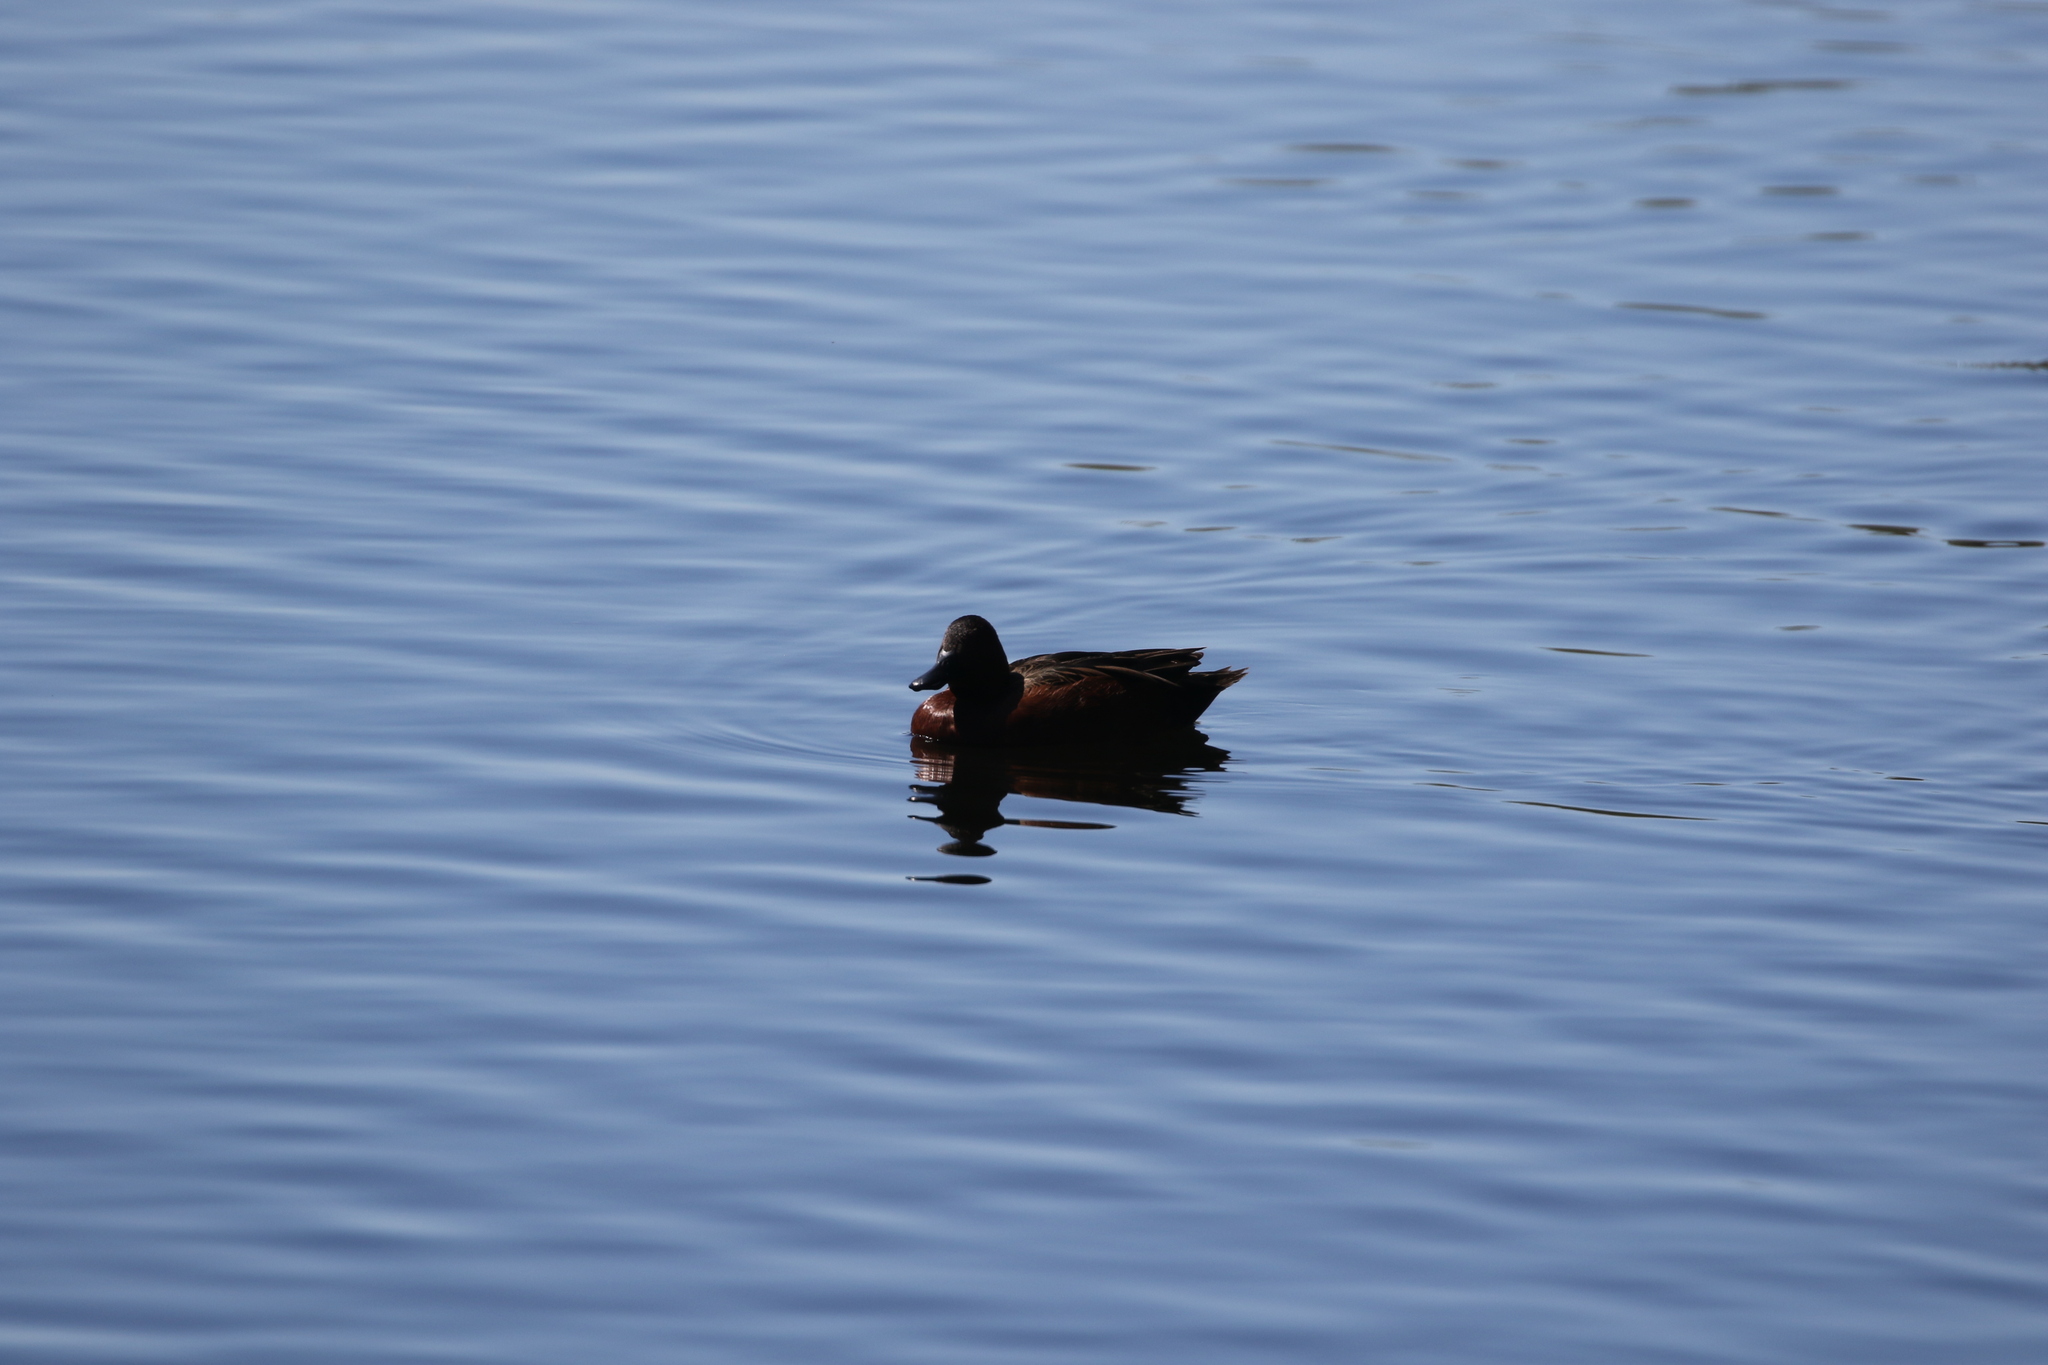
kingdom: Animalia
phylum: Chordata
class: Aves
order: Anseriformes
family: Anatidae
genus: Spatula
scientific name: Spatula cyanoptera
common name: Cinnamon teal
